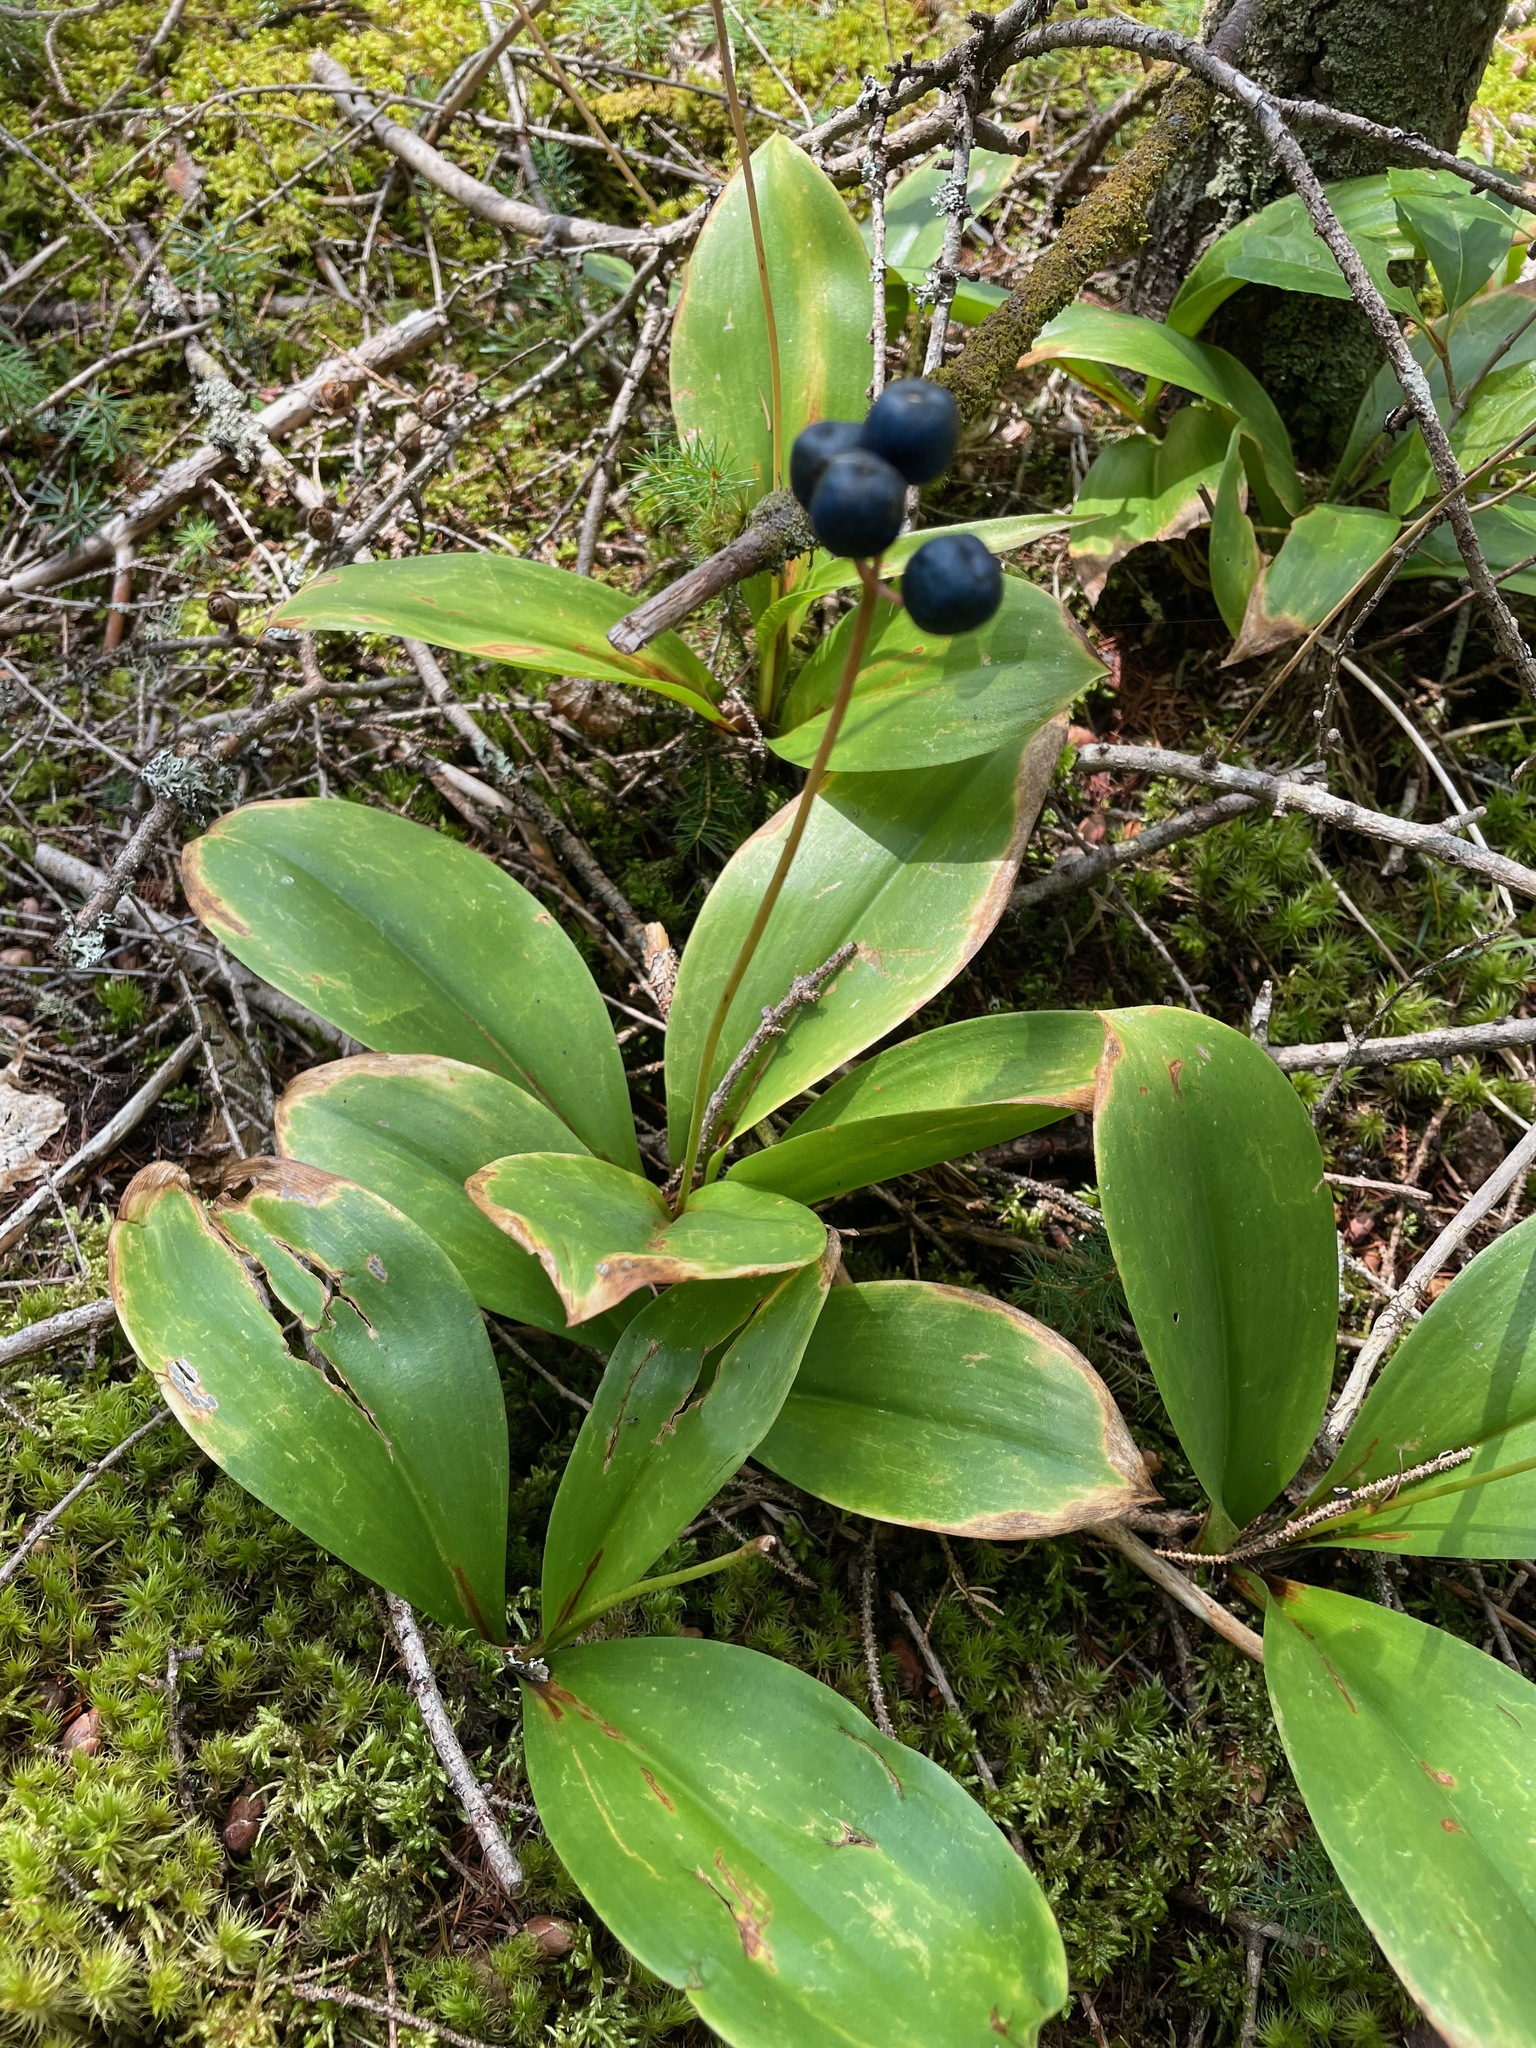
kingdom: Plantae
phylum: Tracheophyta
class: Liliopsida
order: Liliales
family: Liliaceae
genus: Clintonia
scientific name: Clintonia borealis
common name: Yellow clintonia
